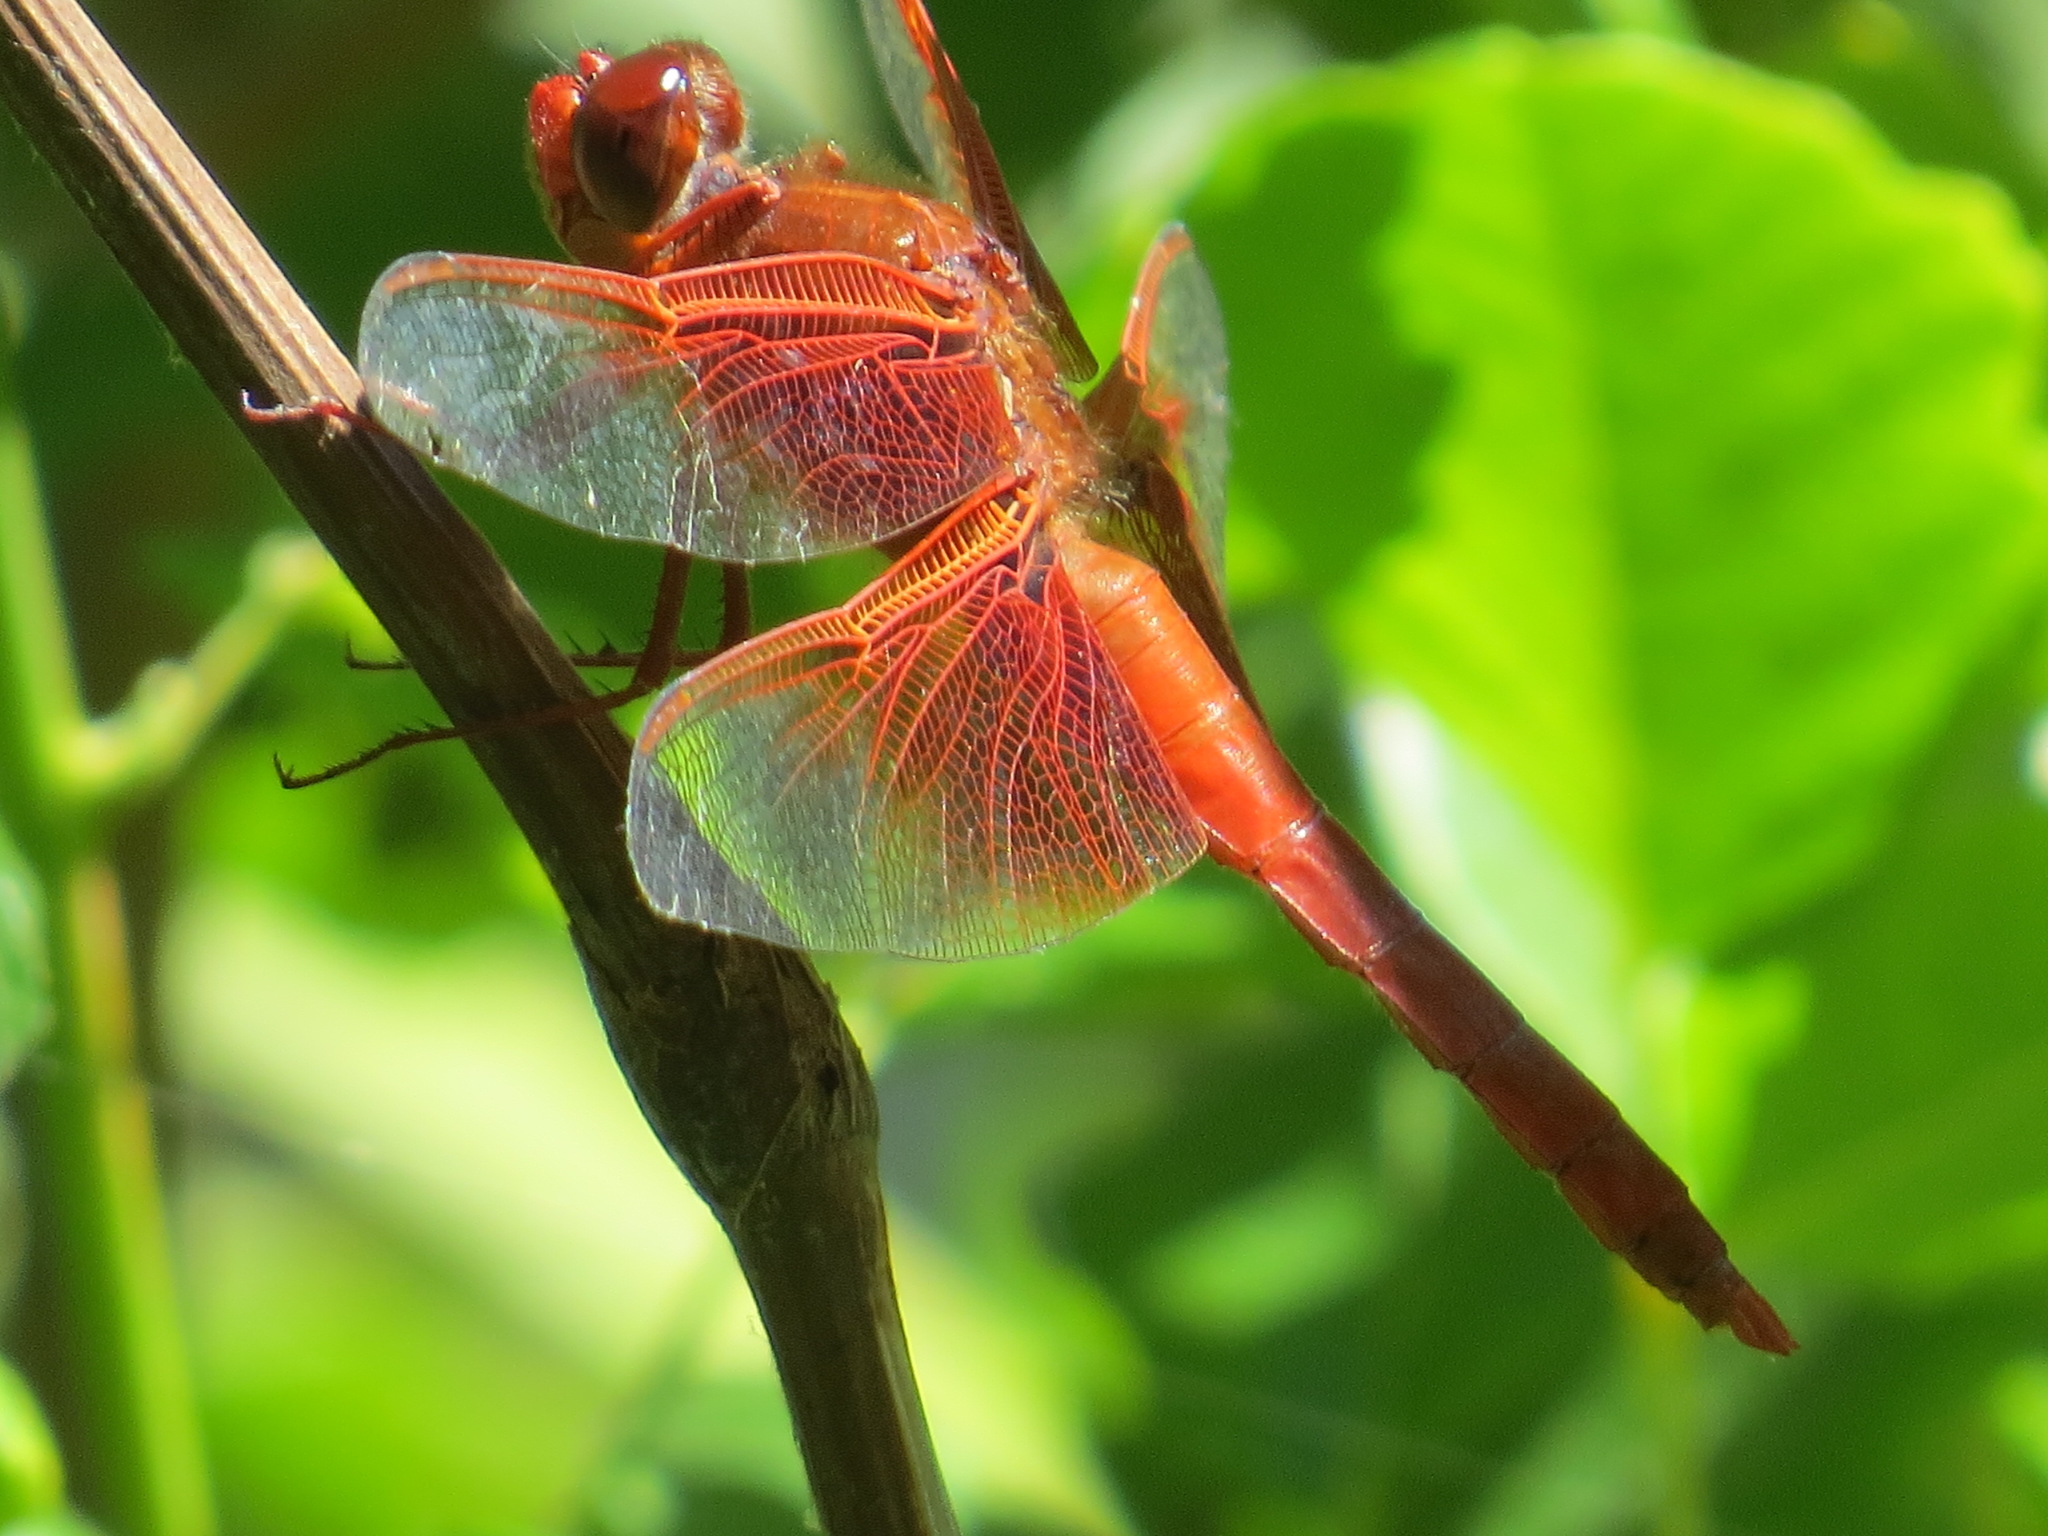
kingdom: Animalia
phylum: Arthropoda
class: Insecta
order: Odonata
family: Libellulidae
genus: Libellula
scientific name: Libellula saturata
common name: Flame skimmer
